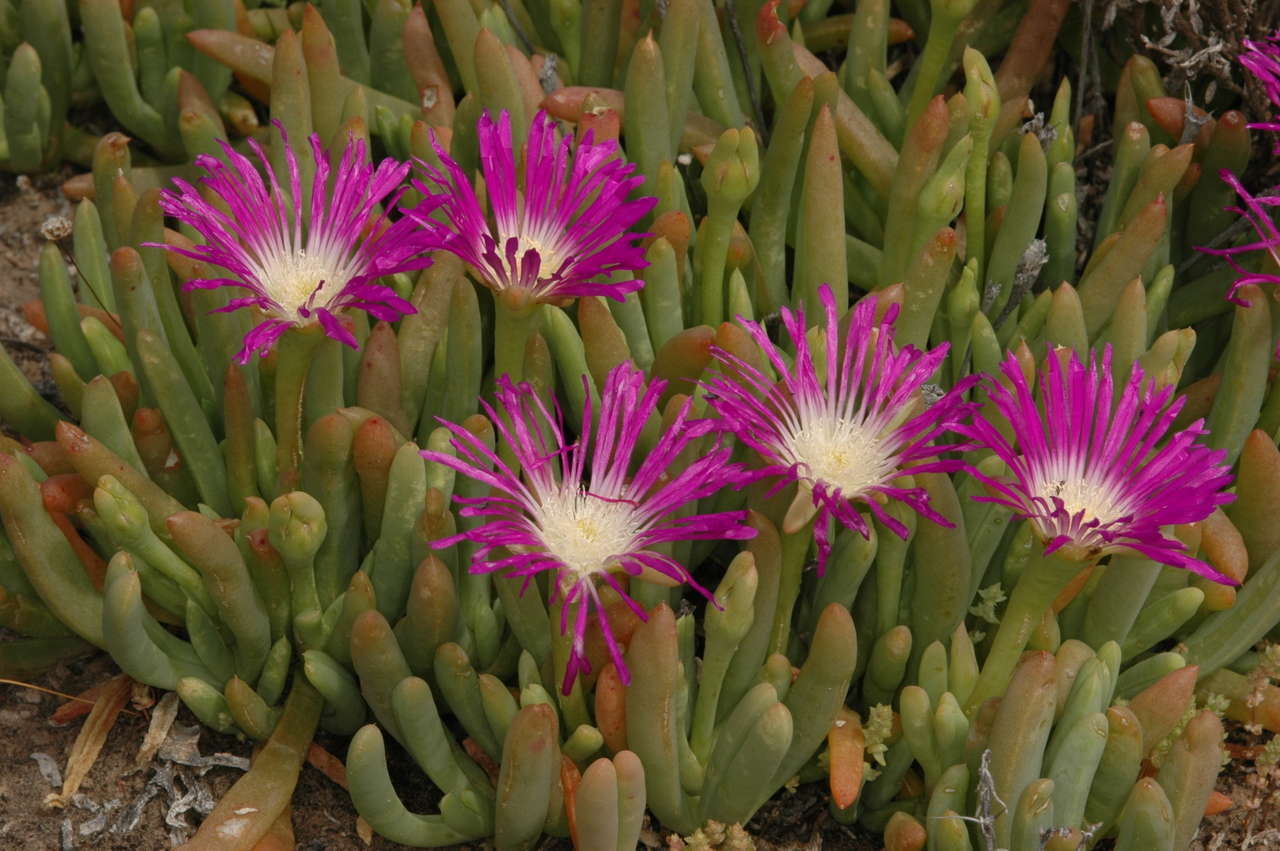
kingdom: Plantae
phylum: Tracheophyta
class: Magnoliopsida
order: Caryophyllales
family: Aizoaceae
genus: Disphyma
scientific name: Disphyma clavellatum
